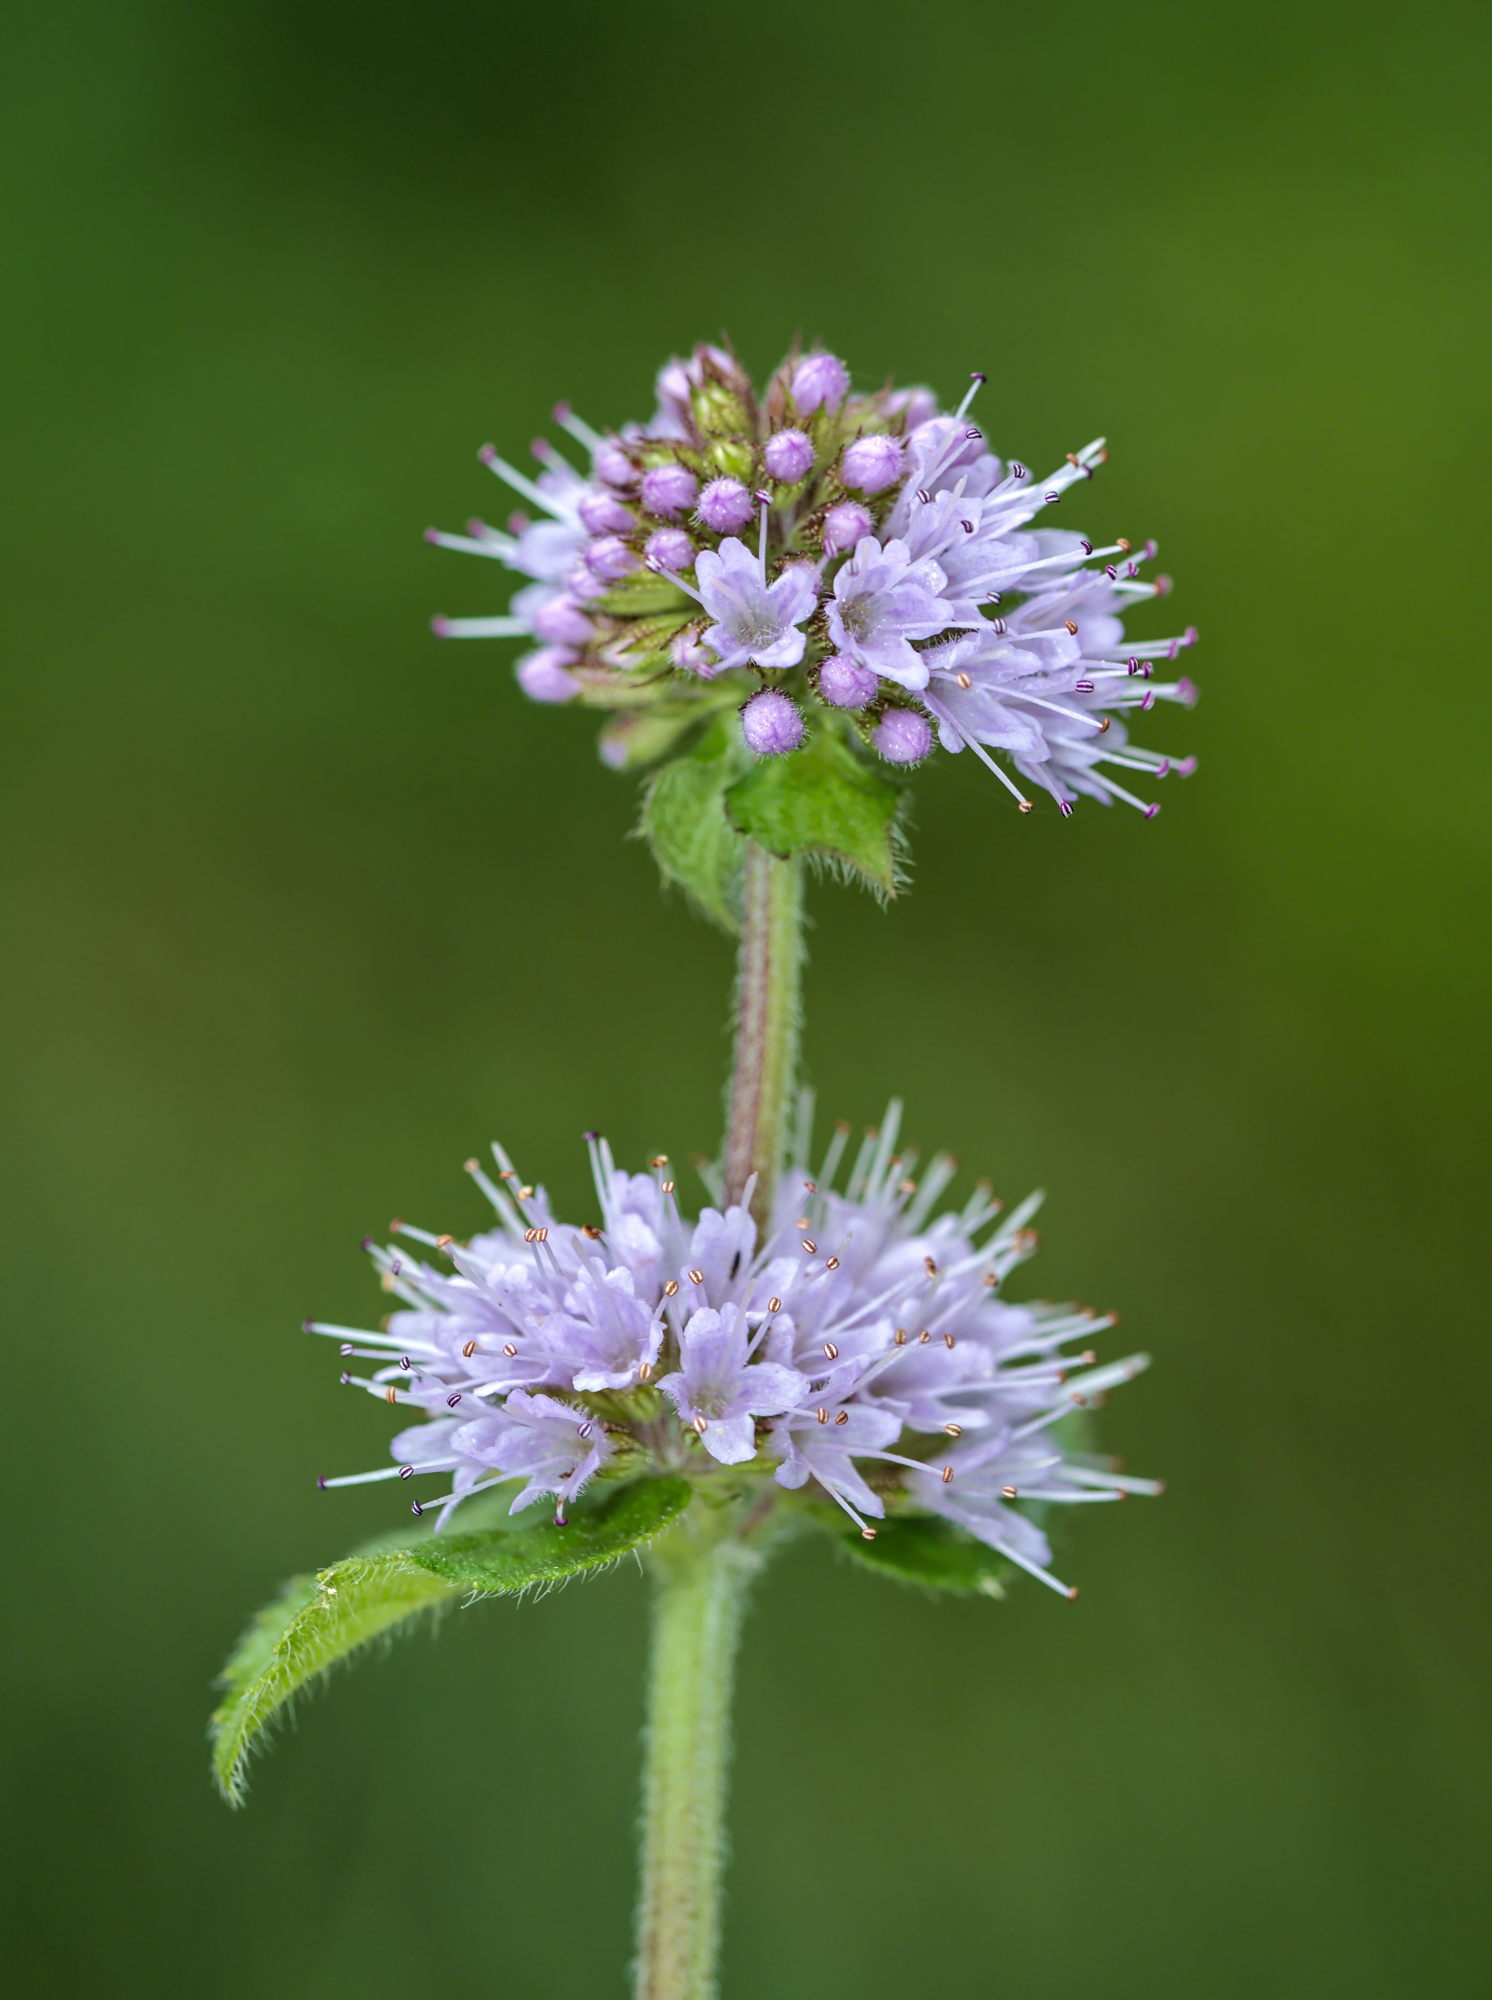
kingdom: Plantae
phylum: Tracheophyta
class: Magnoliopsida
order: Lamiales
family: Lamiaceae
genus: Mentha
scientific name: Mentha aquatica
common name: Water mint
